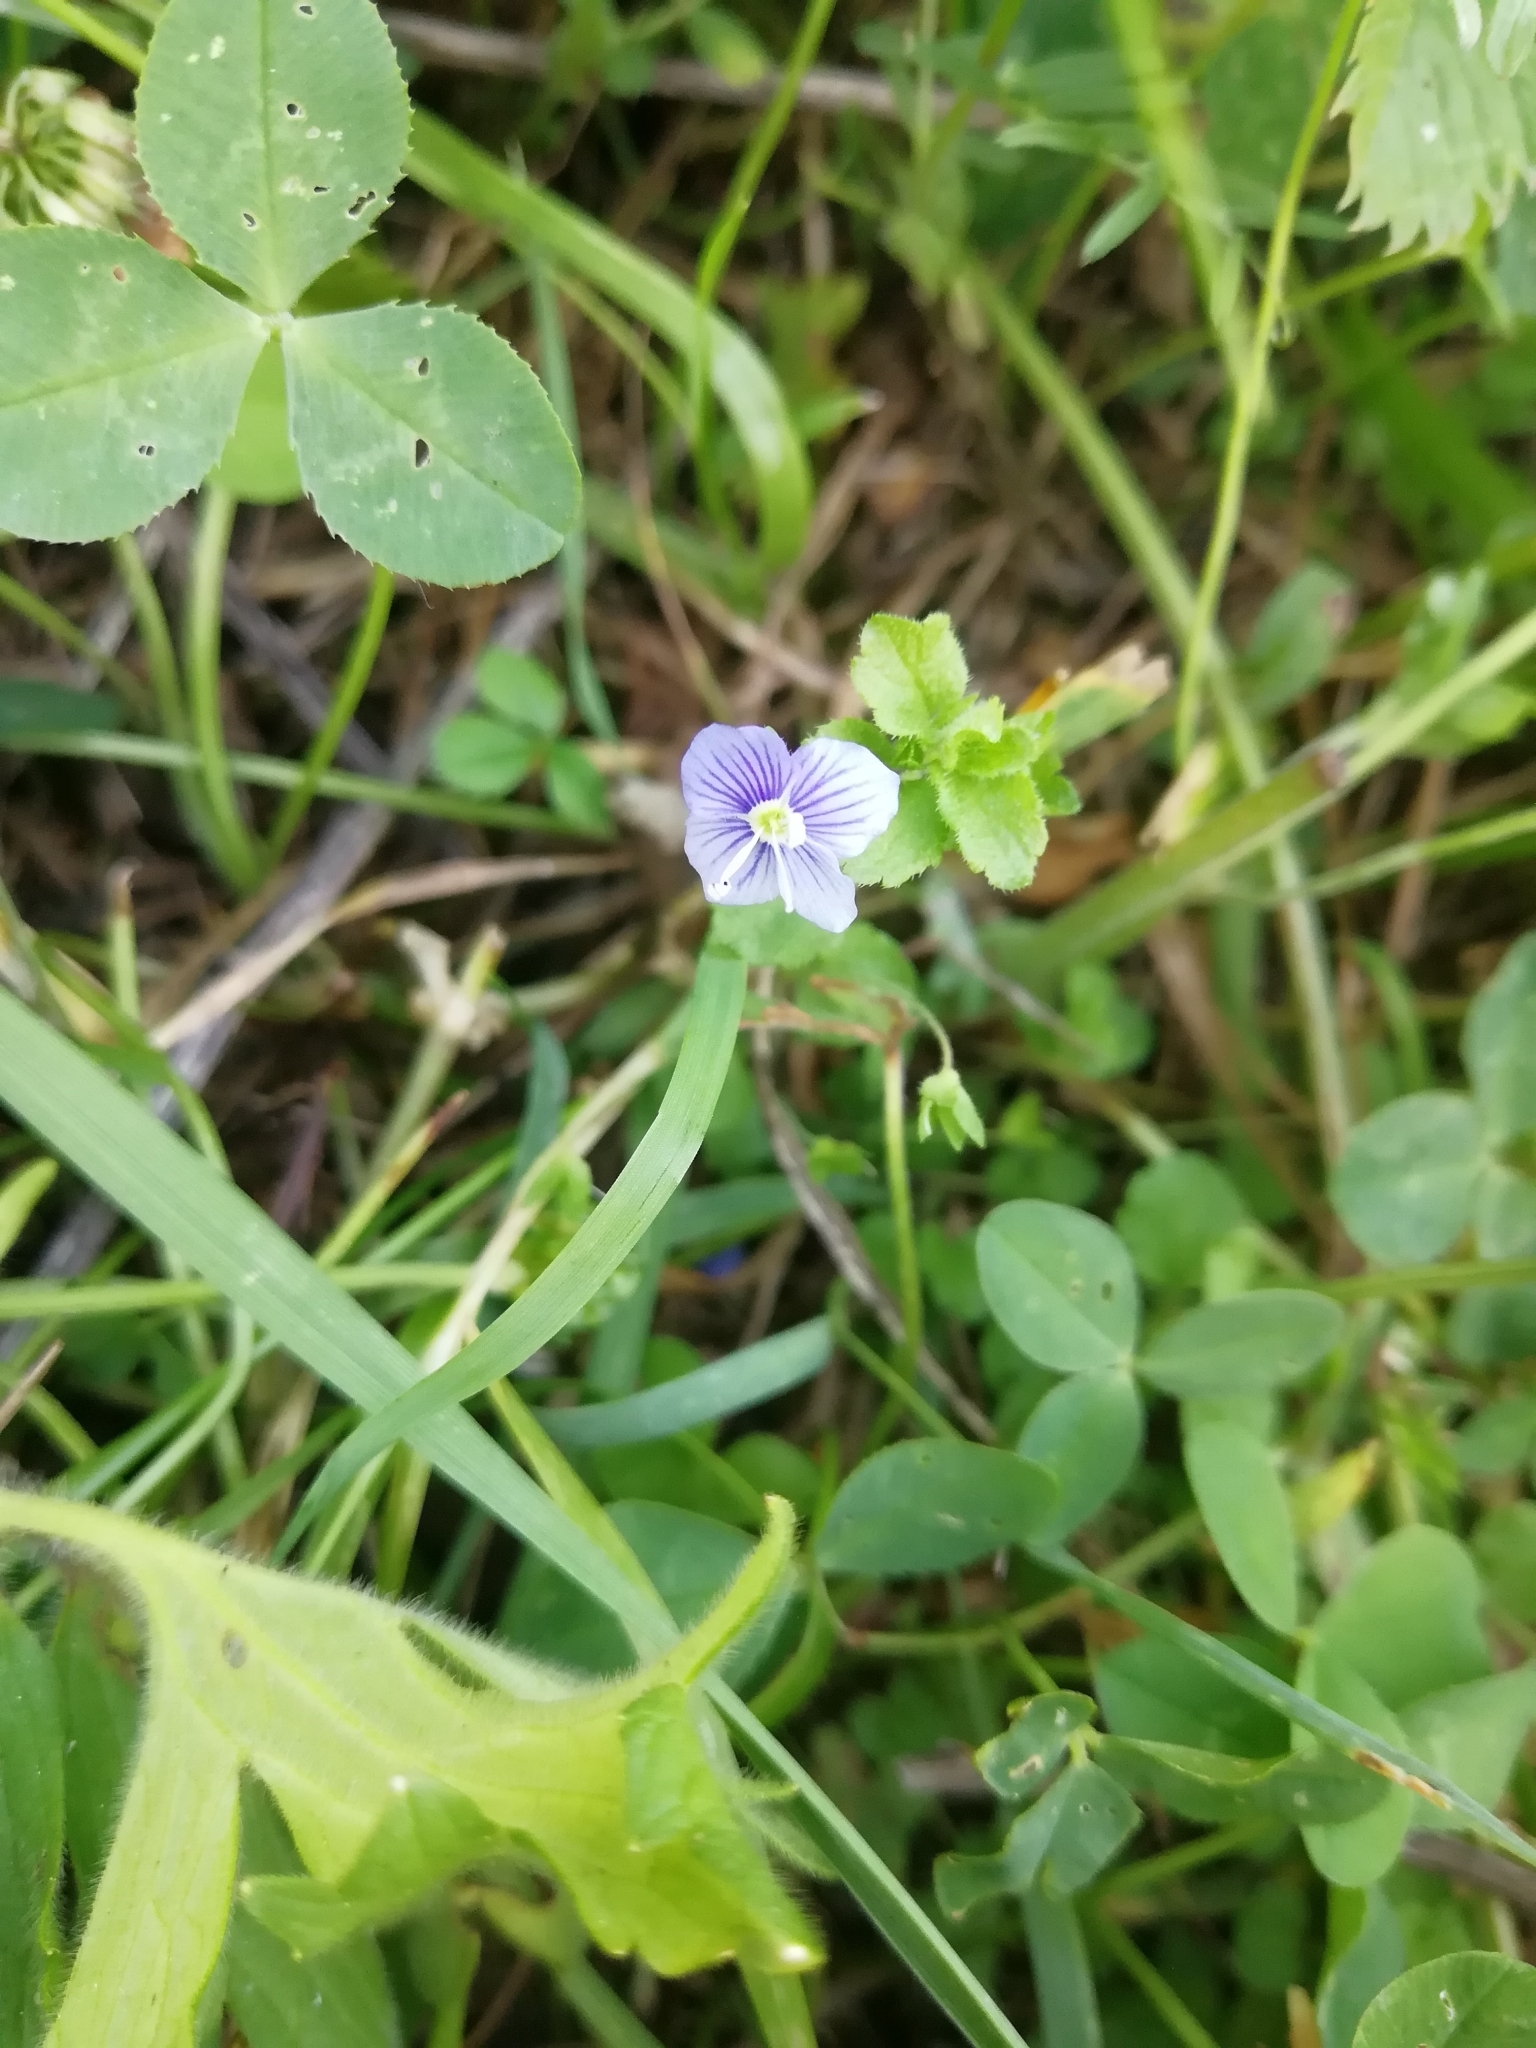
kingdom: Plantae
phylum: Tracheophyta
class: Magnoliopsida
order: Lamiales
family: Plantaginaceae
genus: Veronica
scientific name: Veronica filiformis
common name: Slender speedwell
